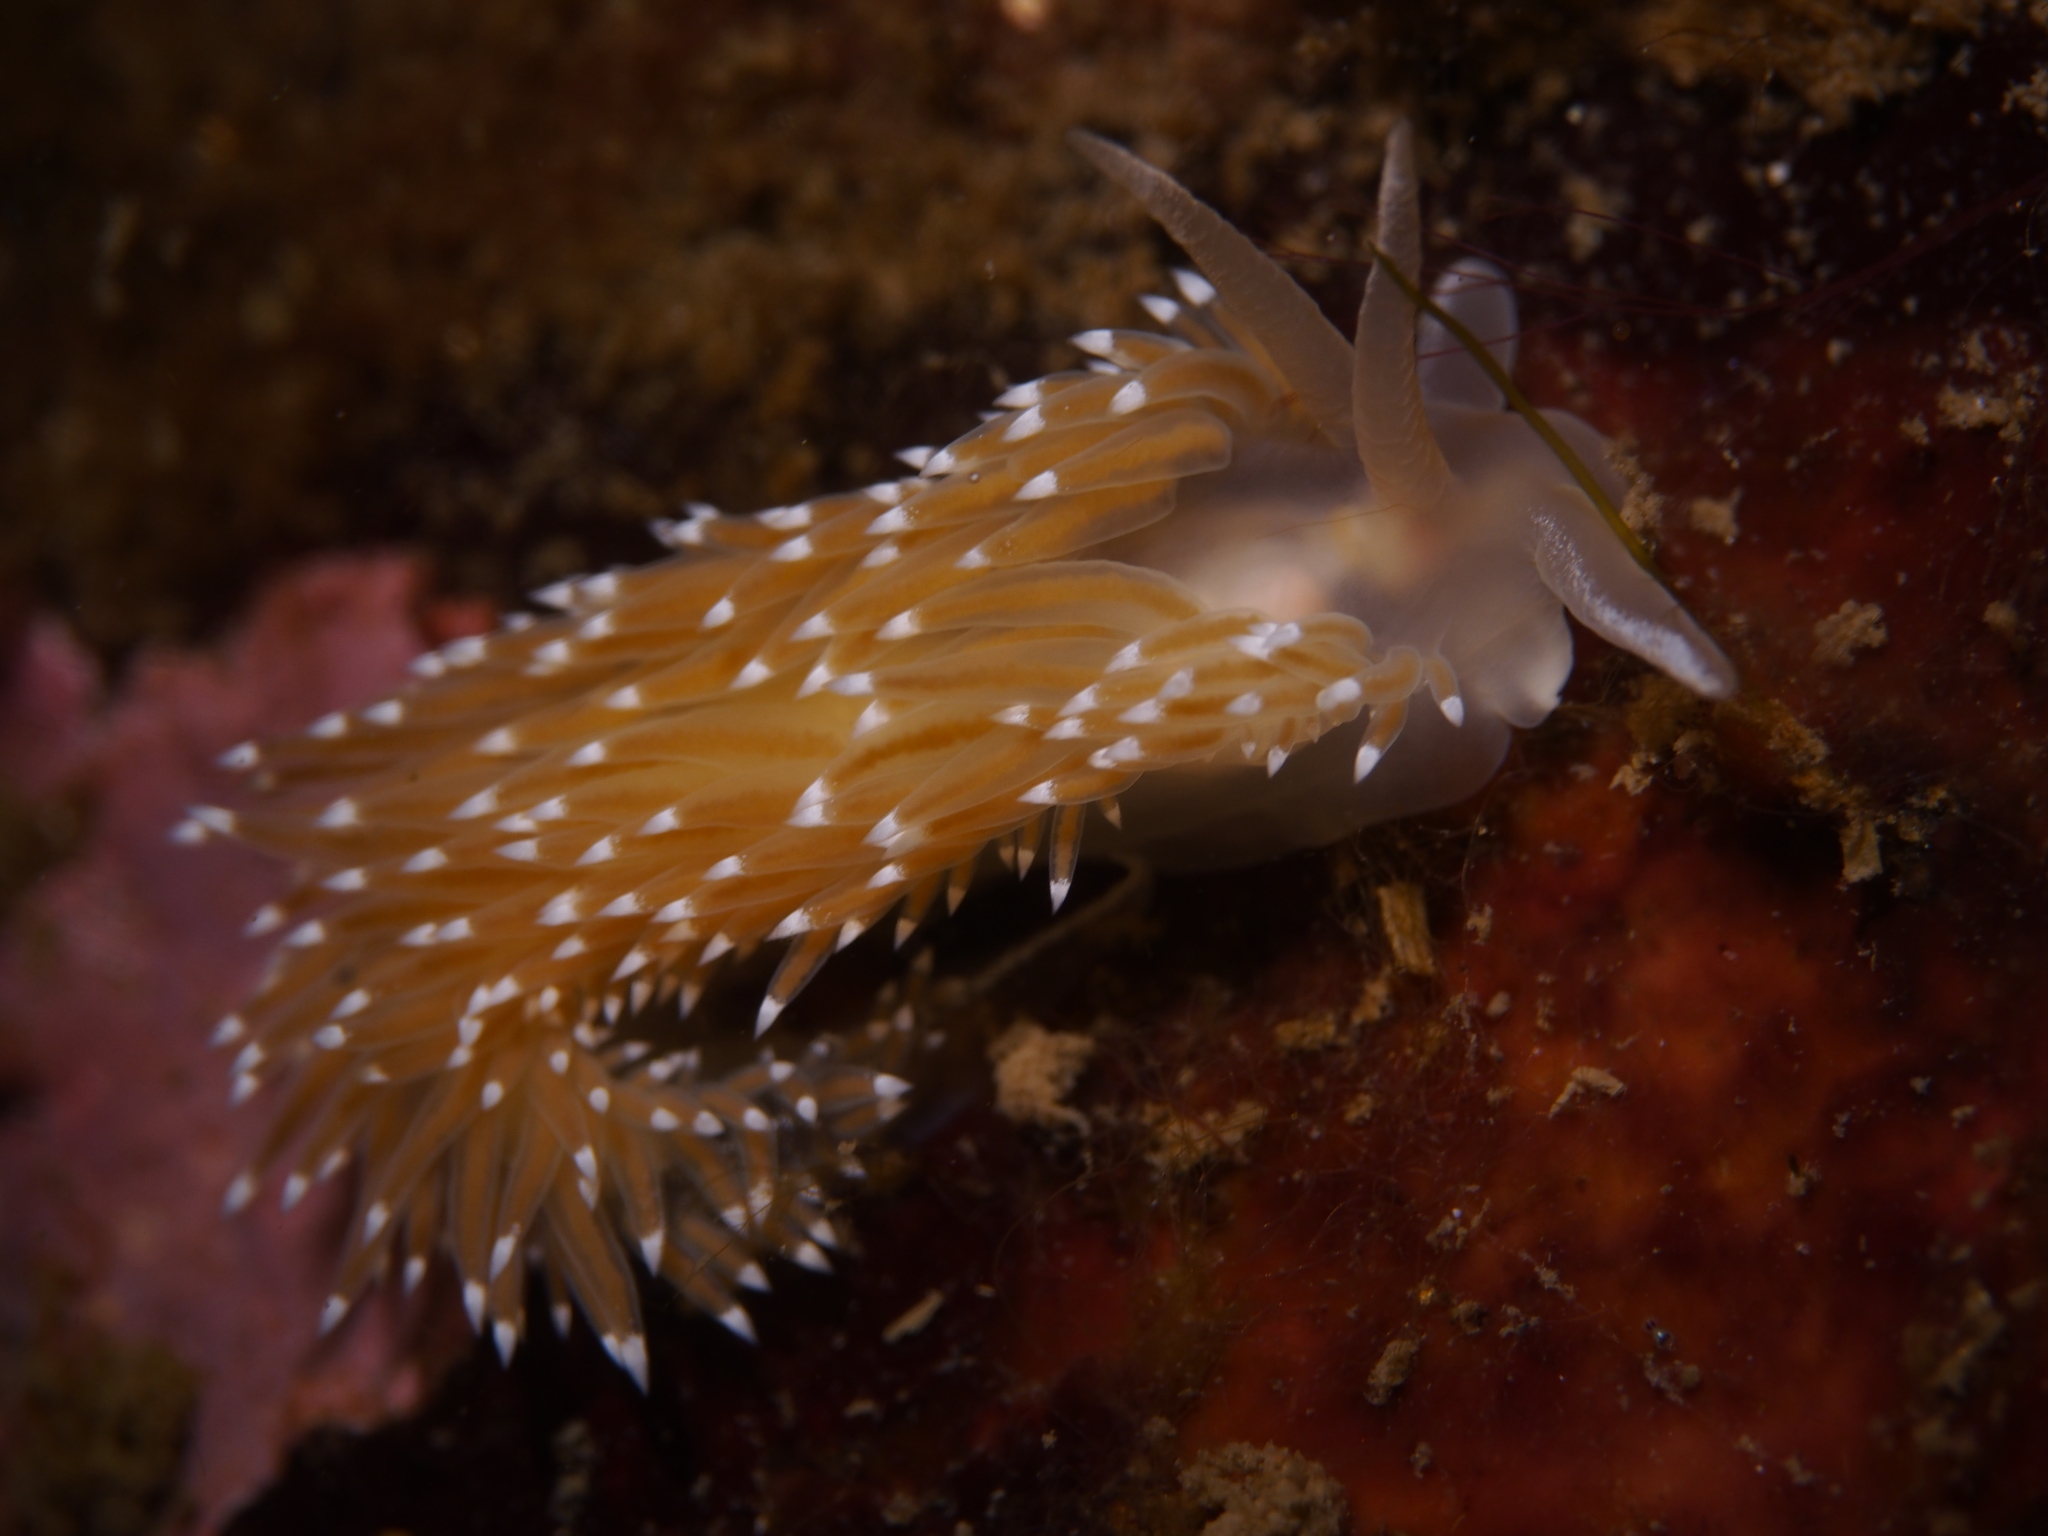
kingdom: Animalia
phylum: Mollusca
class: Gastropoda
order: Nudibranchia
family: Coryphellidae
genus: Coryphella
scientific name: Coryphella nobilis
